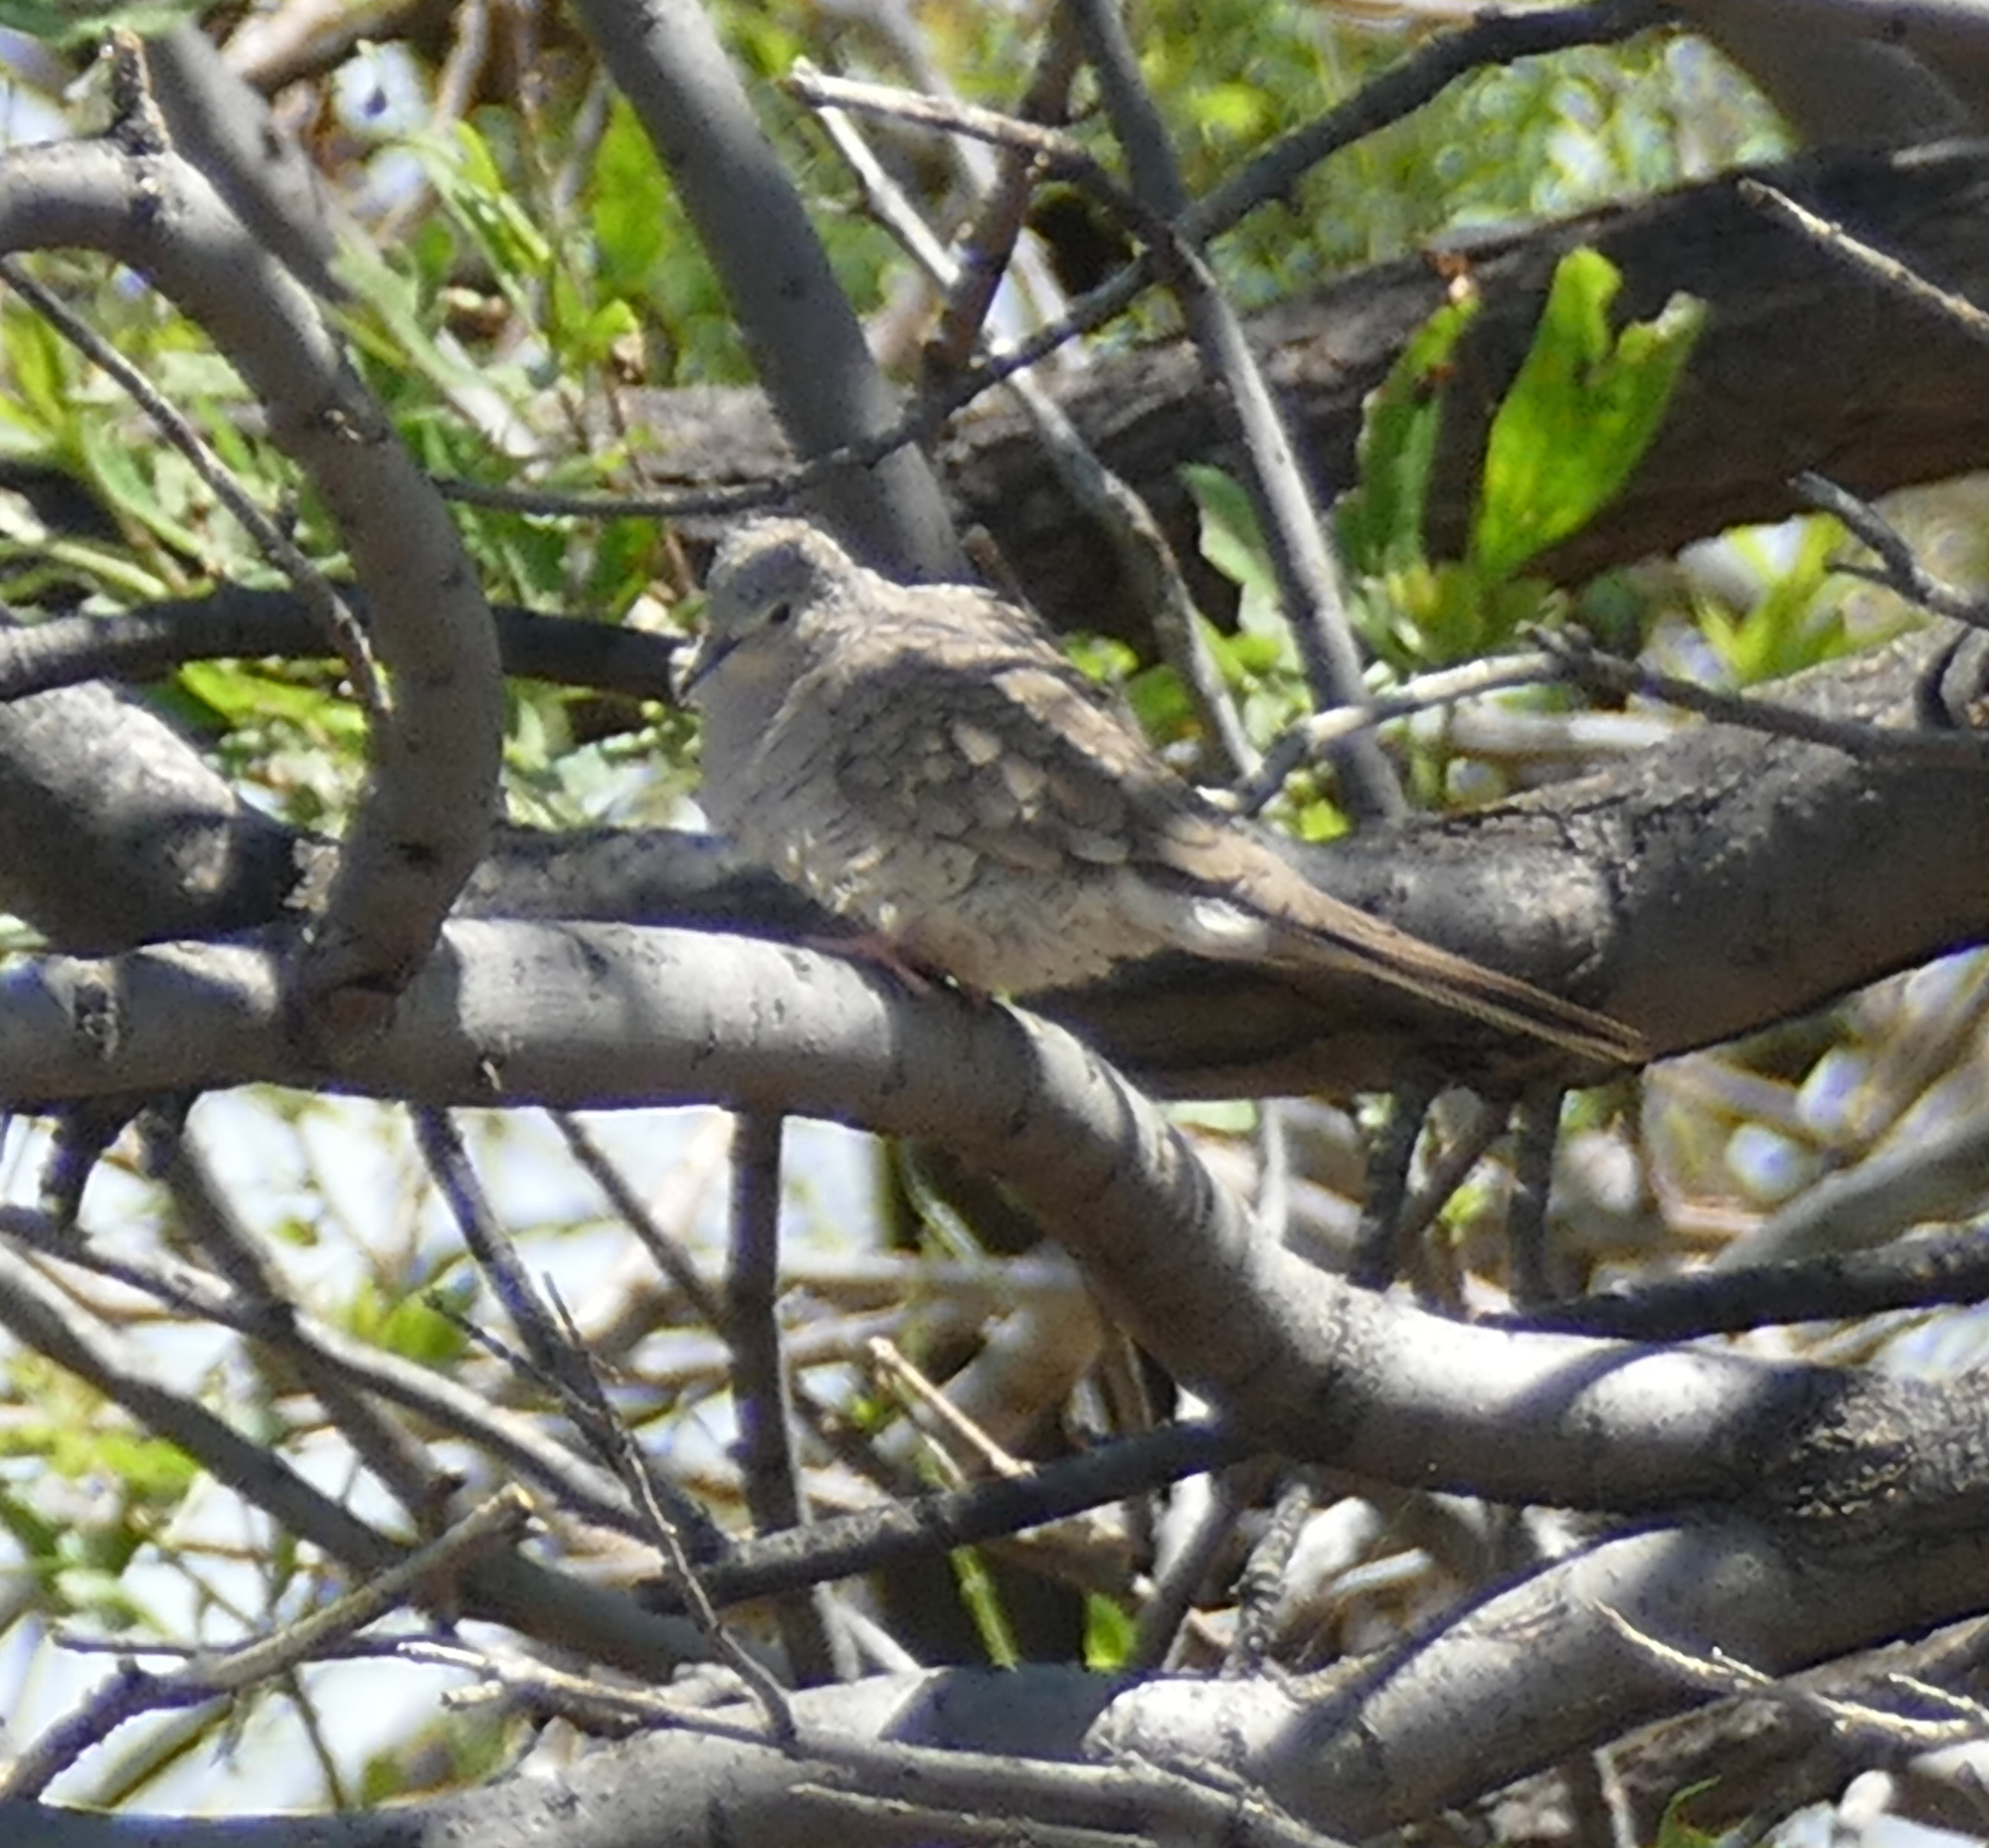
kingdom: Animalia
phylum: Chordata
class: Aves
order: Columbiformes
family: Columbidae
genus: Columbina
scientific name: Columbina inca
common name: Inca dove
